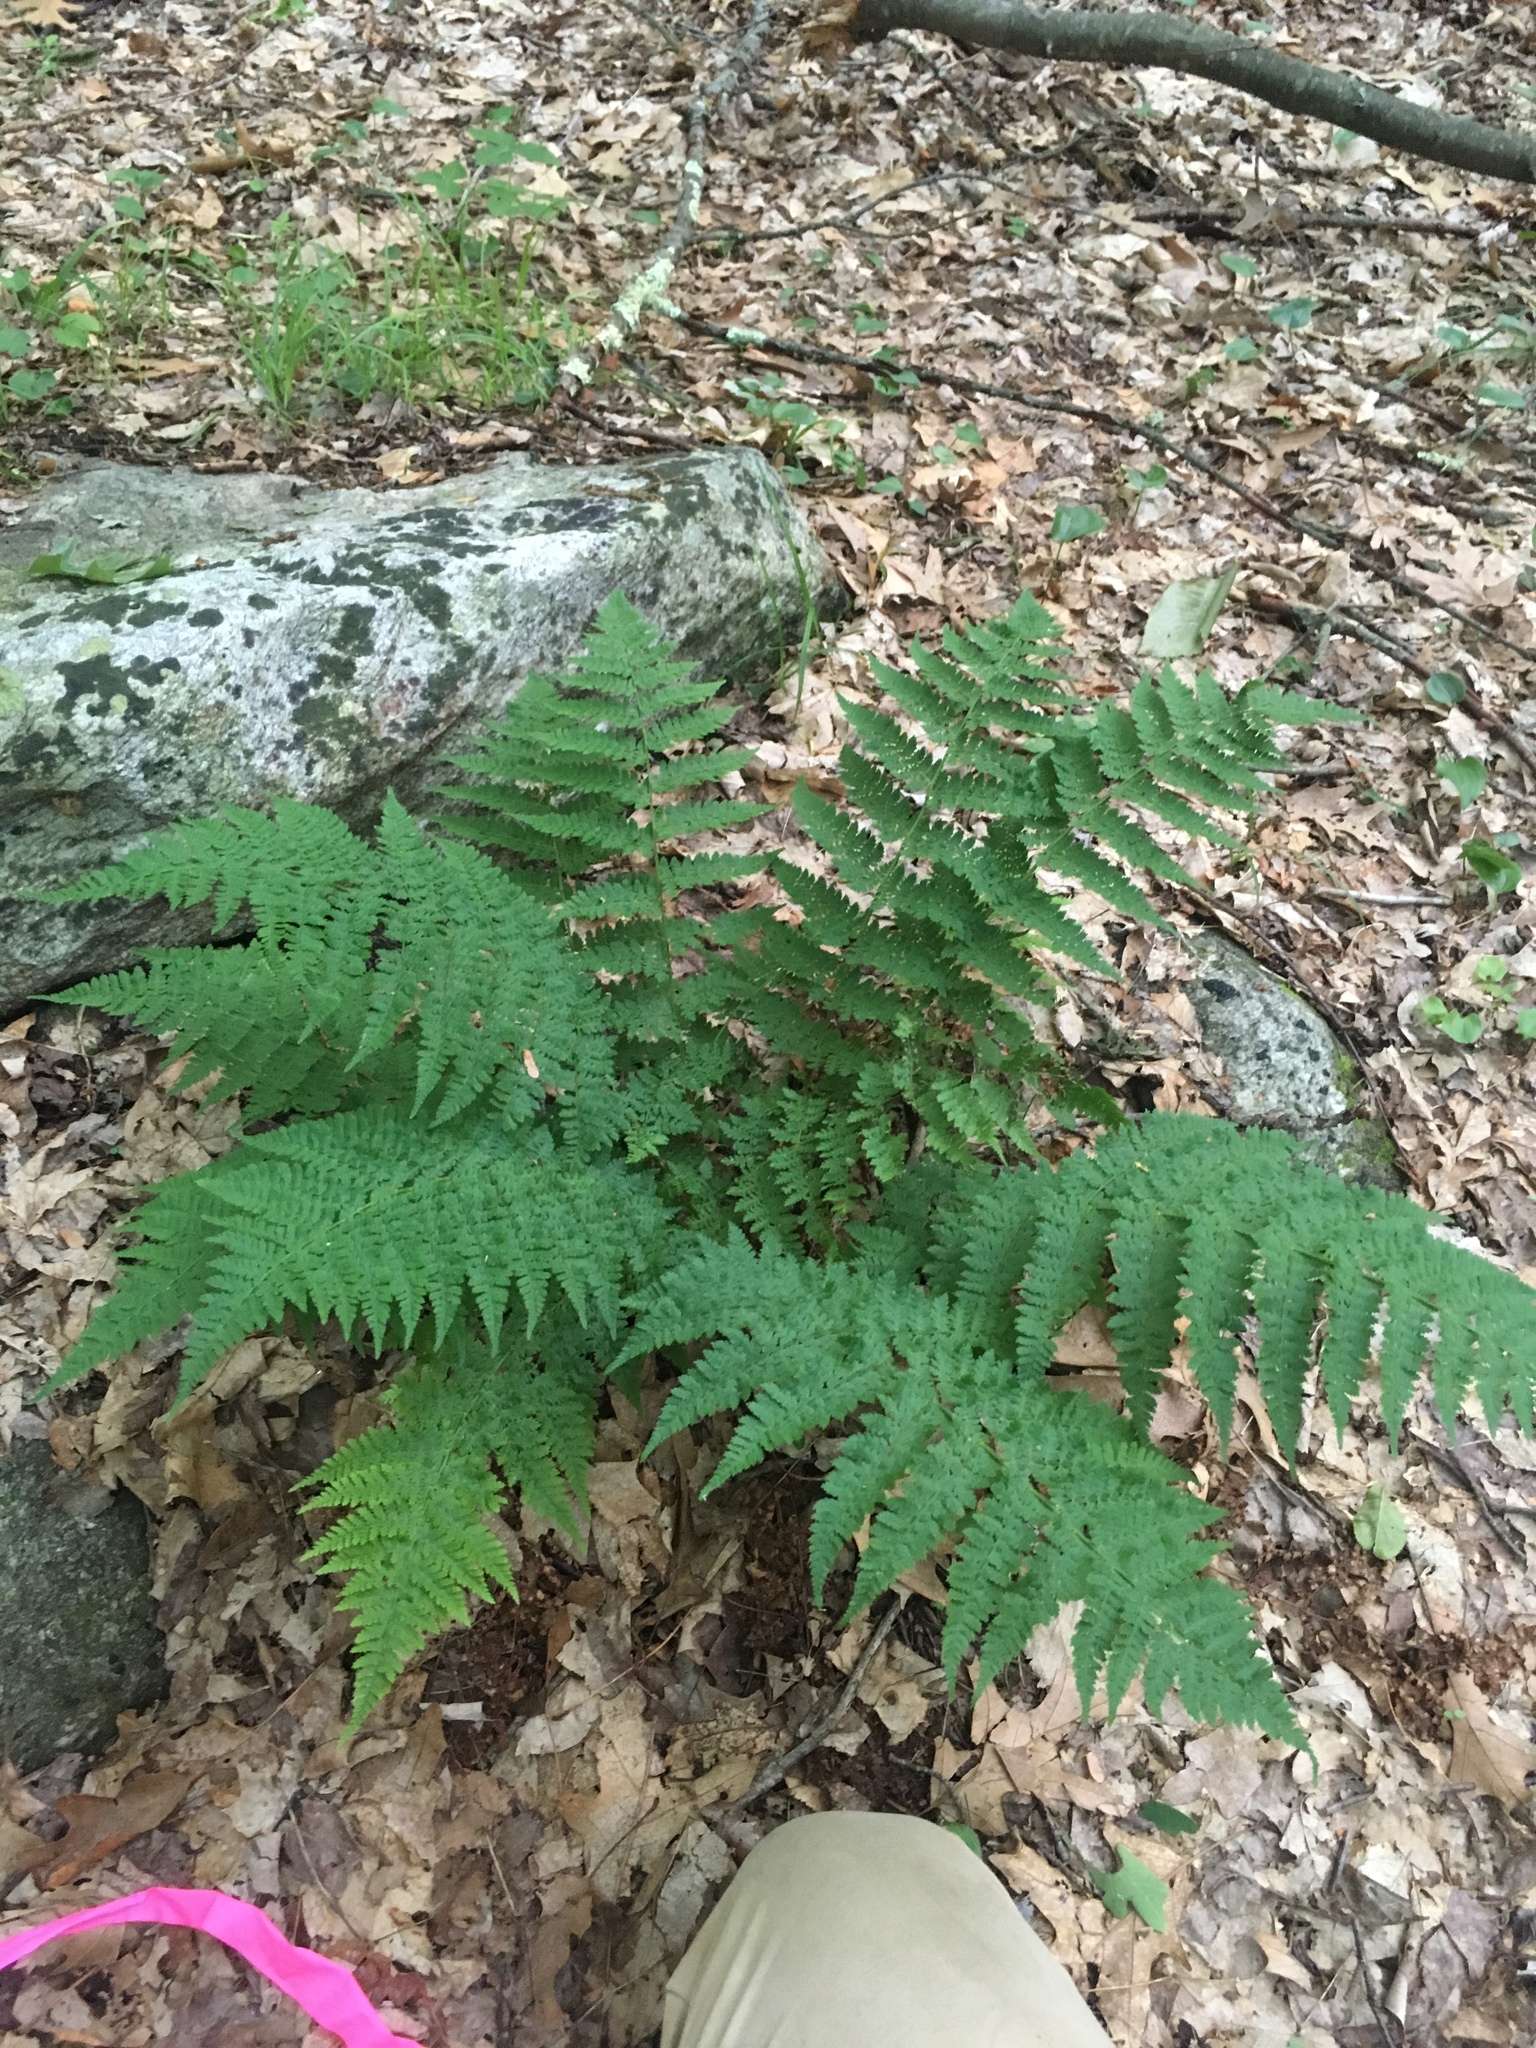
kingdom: Plantae
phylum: Tracheophyta
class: Polypodiopsida
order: Polypodiales
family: Dryopteridaceae
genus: Dryopteris
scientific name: Dryopteris intermedia
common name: Evergreen wood fern
